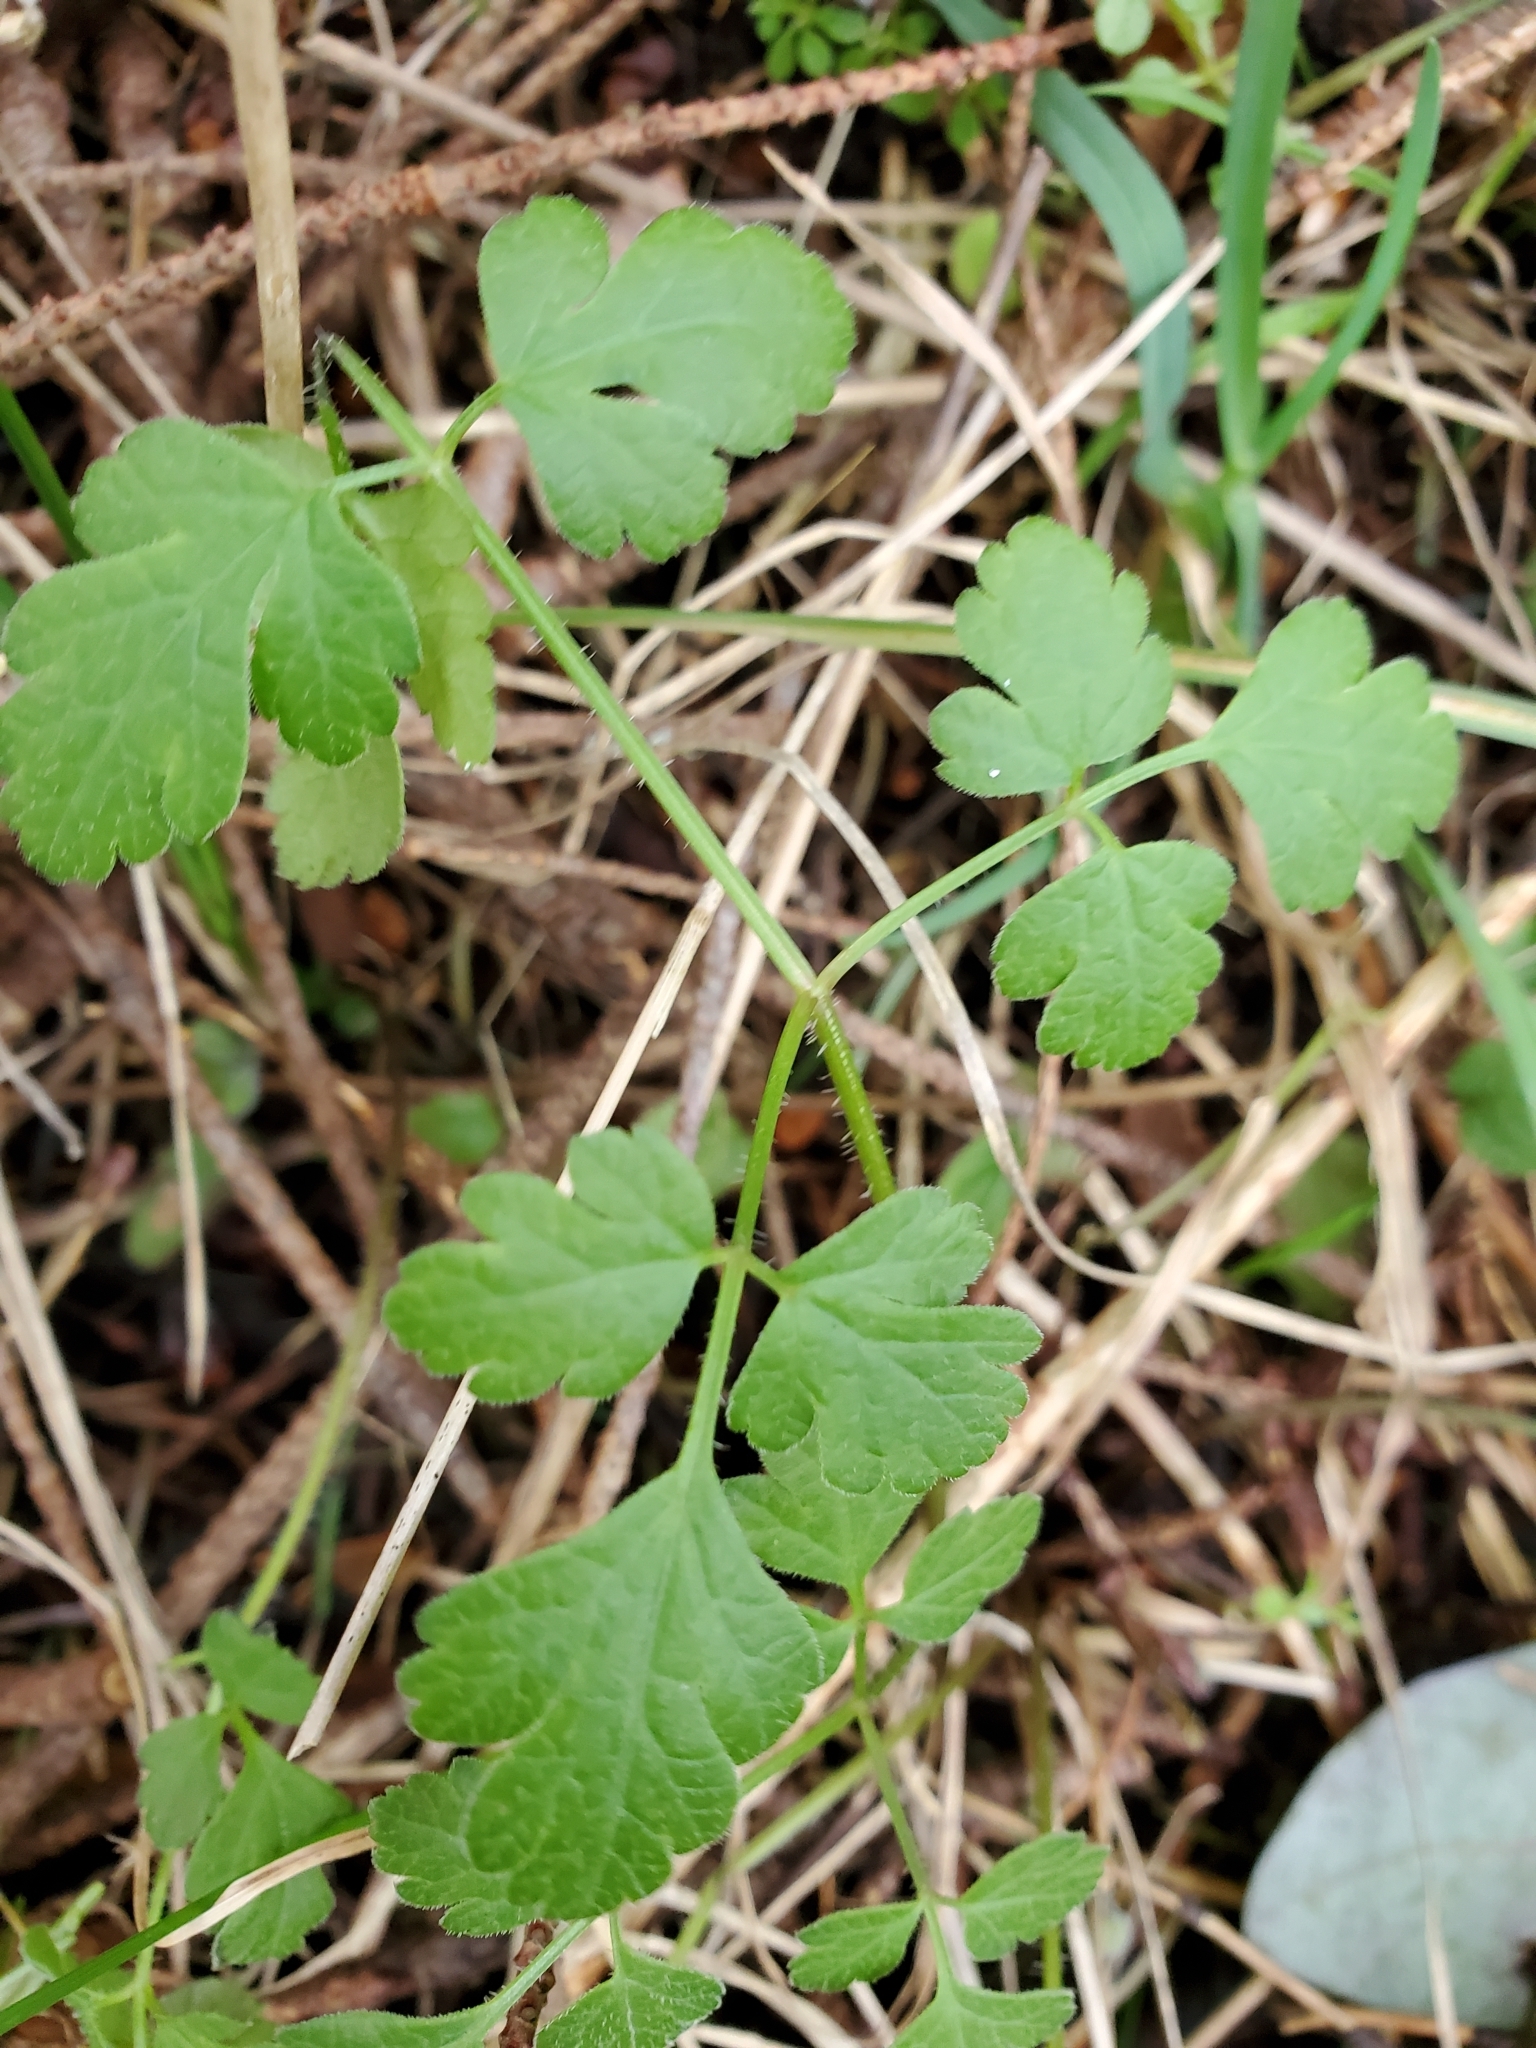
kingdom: Plantae
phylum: Tracheophyta
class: Magnoliopsida
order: Apiales
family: Apiaceae
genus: Osmorhiza
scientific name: Osmorhiza berteroi
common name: Mountain sweet cicely
